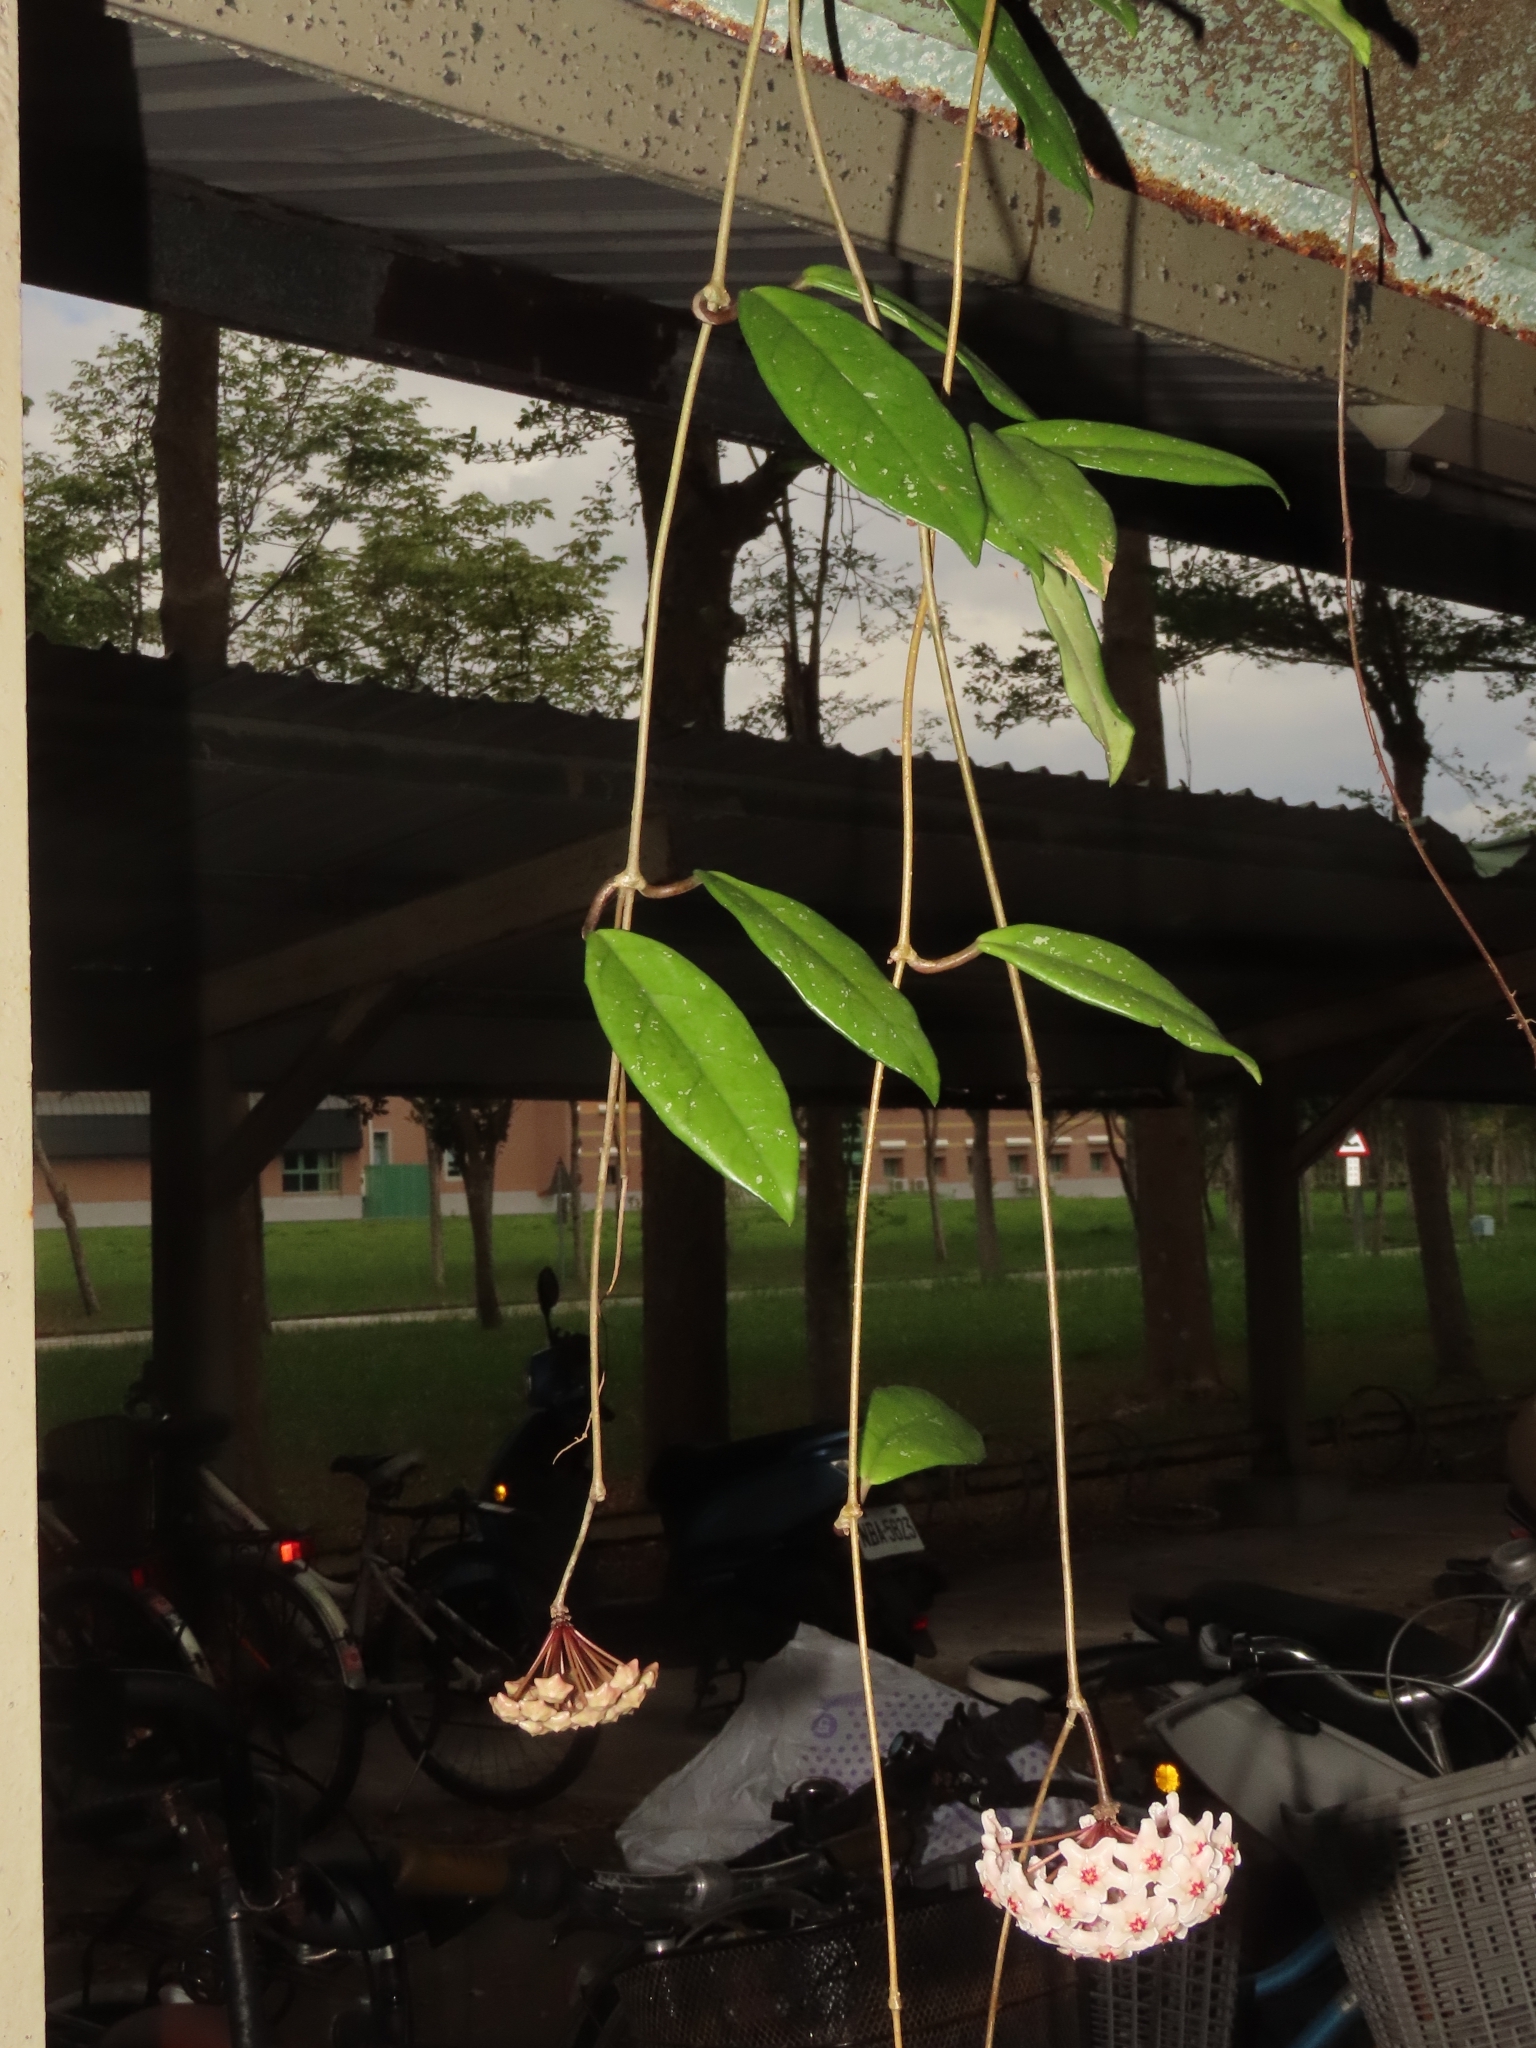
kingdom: Plantae
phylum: Tracheophyta
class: Magnoliopsida
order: Gentianales
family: Apocynaceae
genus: Hoya
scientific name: Hoya carnosa
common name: Honeyplant
